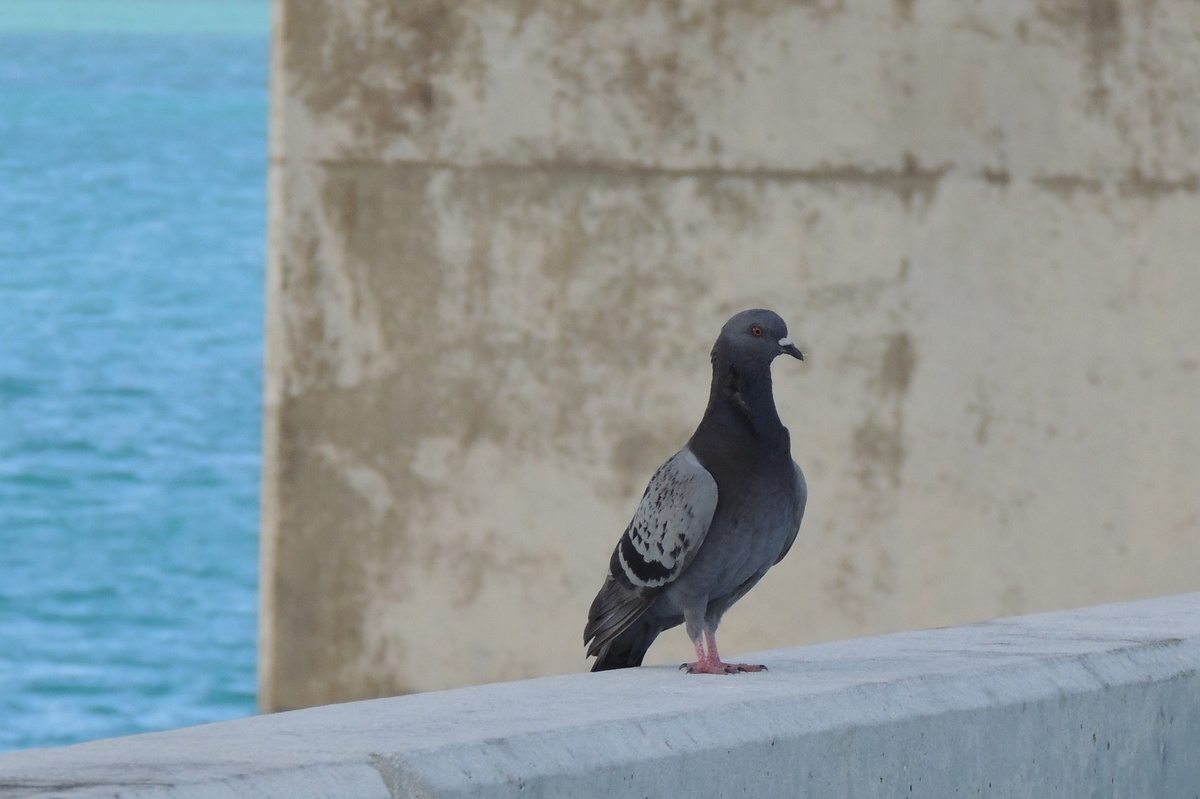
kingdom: Animalia
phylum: Chordata
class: Aves
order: Columbiformes
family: Columbidae
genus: Columba
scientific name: Columba livia
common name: Rock pigeon
